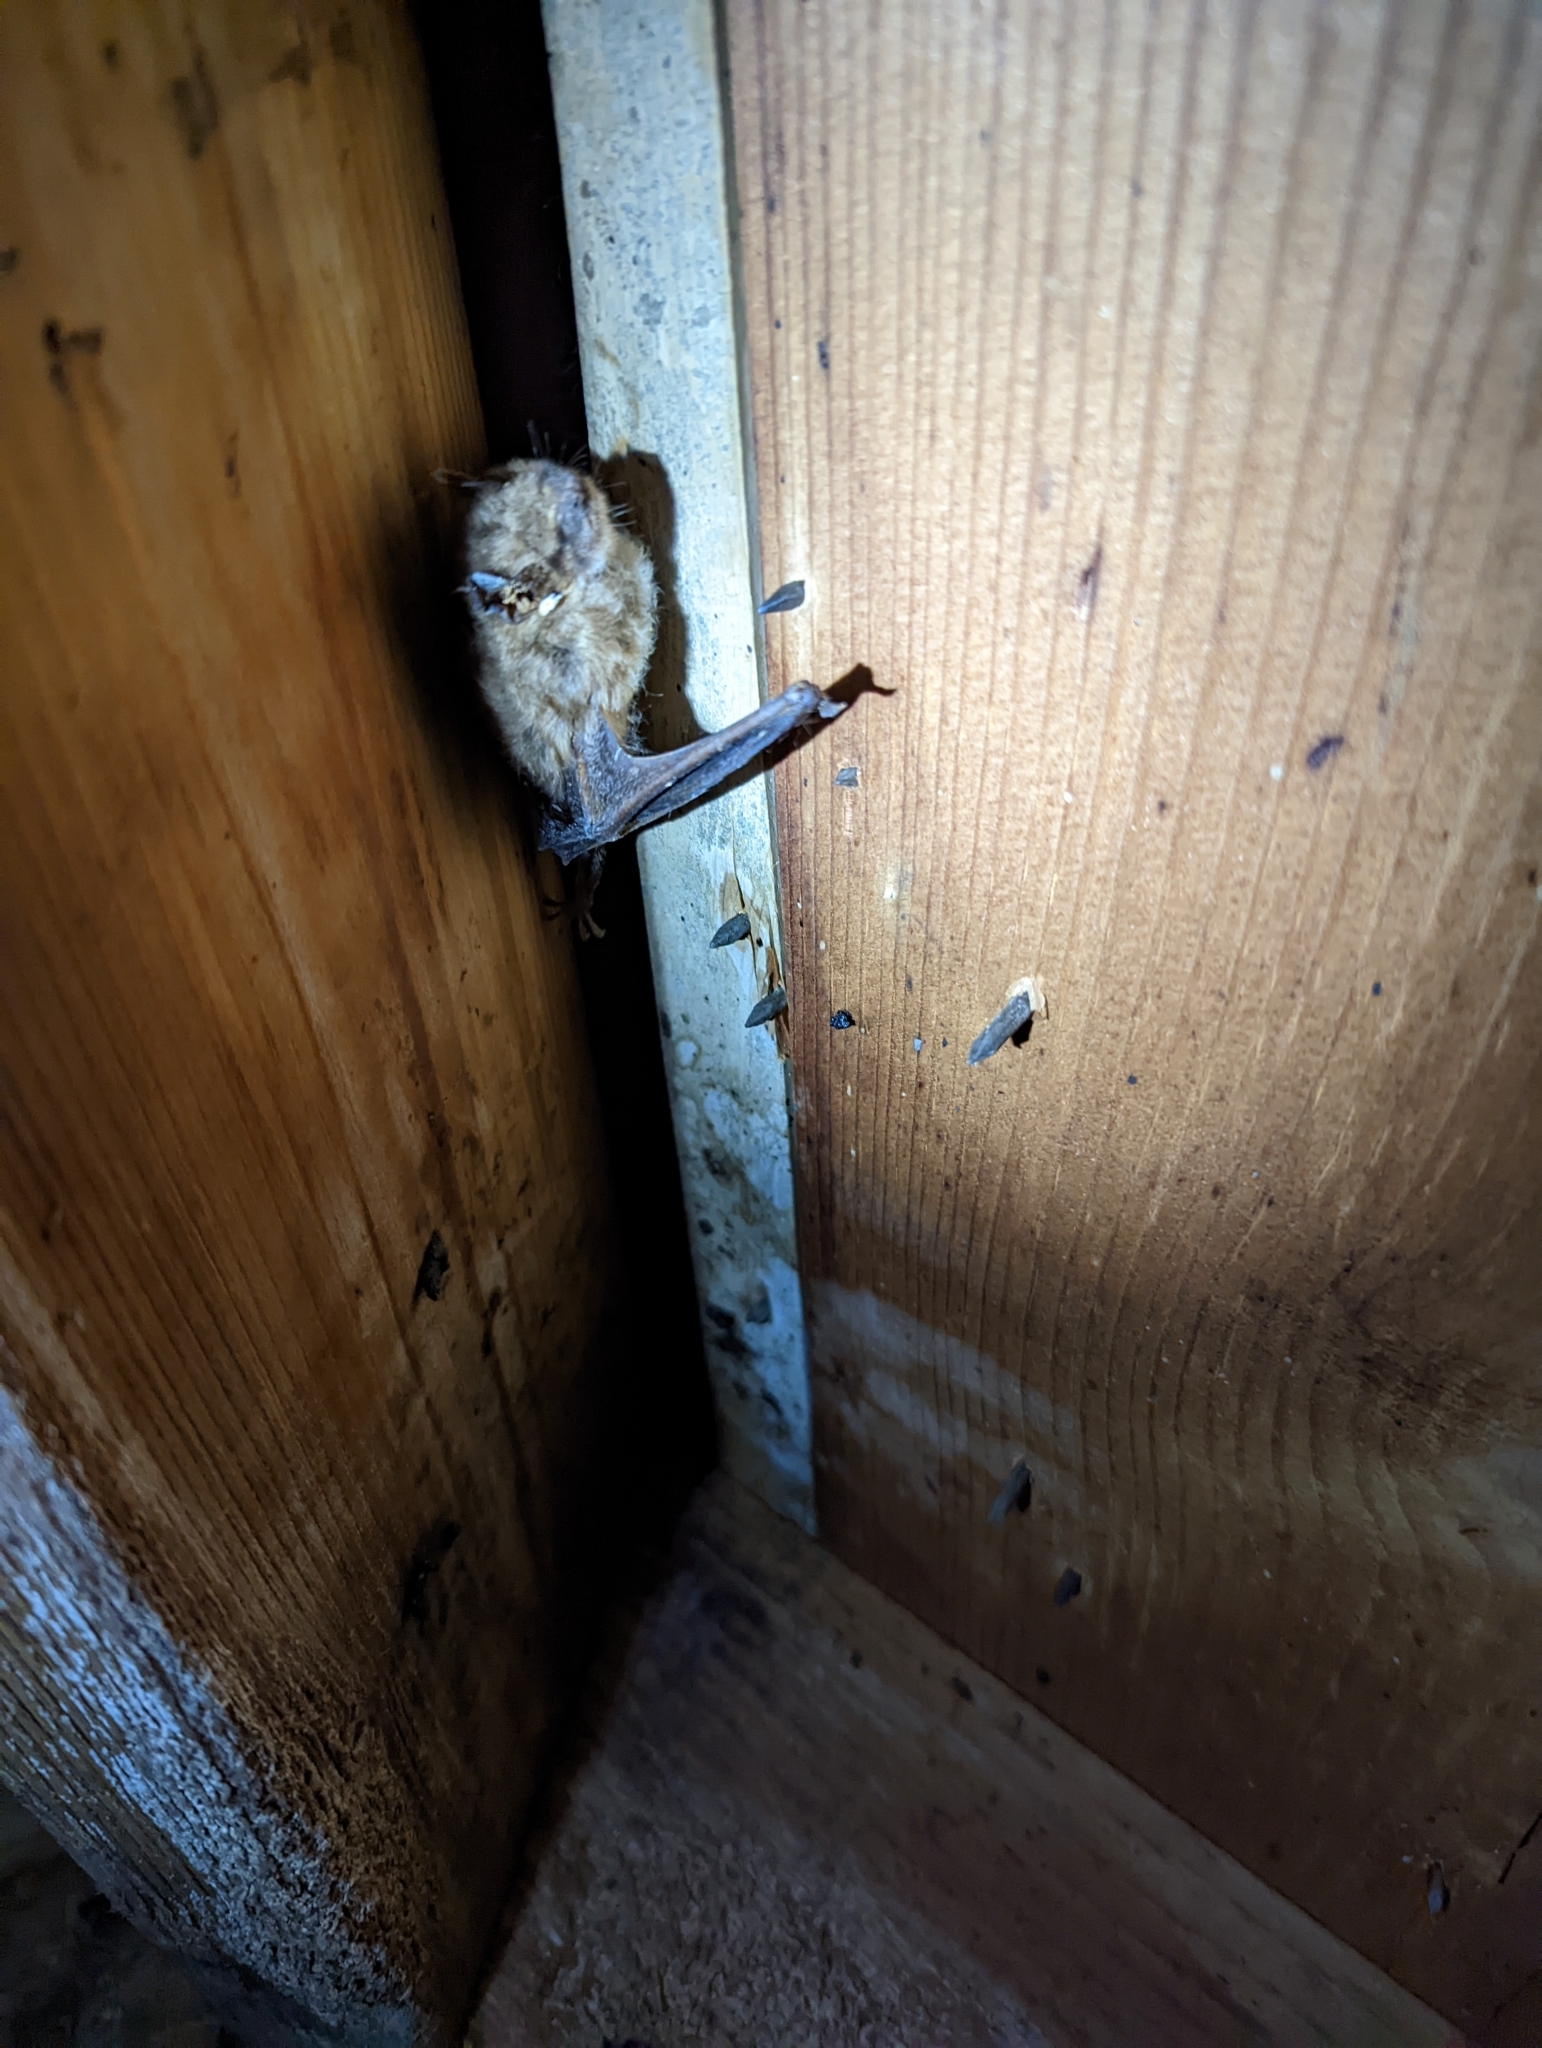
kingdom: Animalia
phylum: Chordata
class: Mammalia
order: Chiroptera
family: Vespertilionidae
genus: Eptesicus
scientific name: Eptesicus fuscus
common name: Big brown bat
